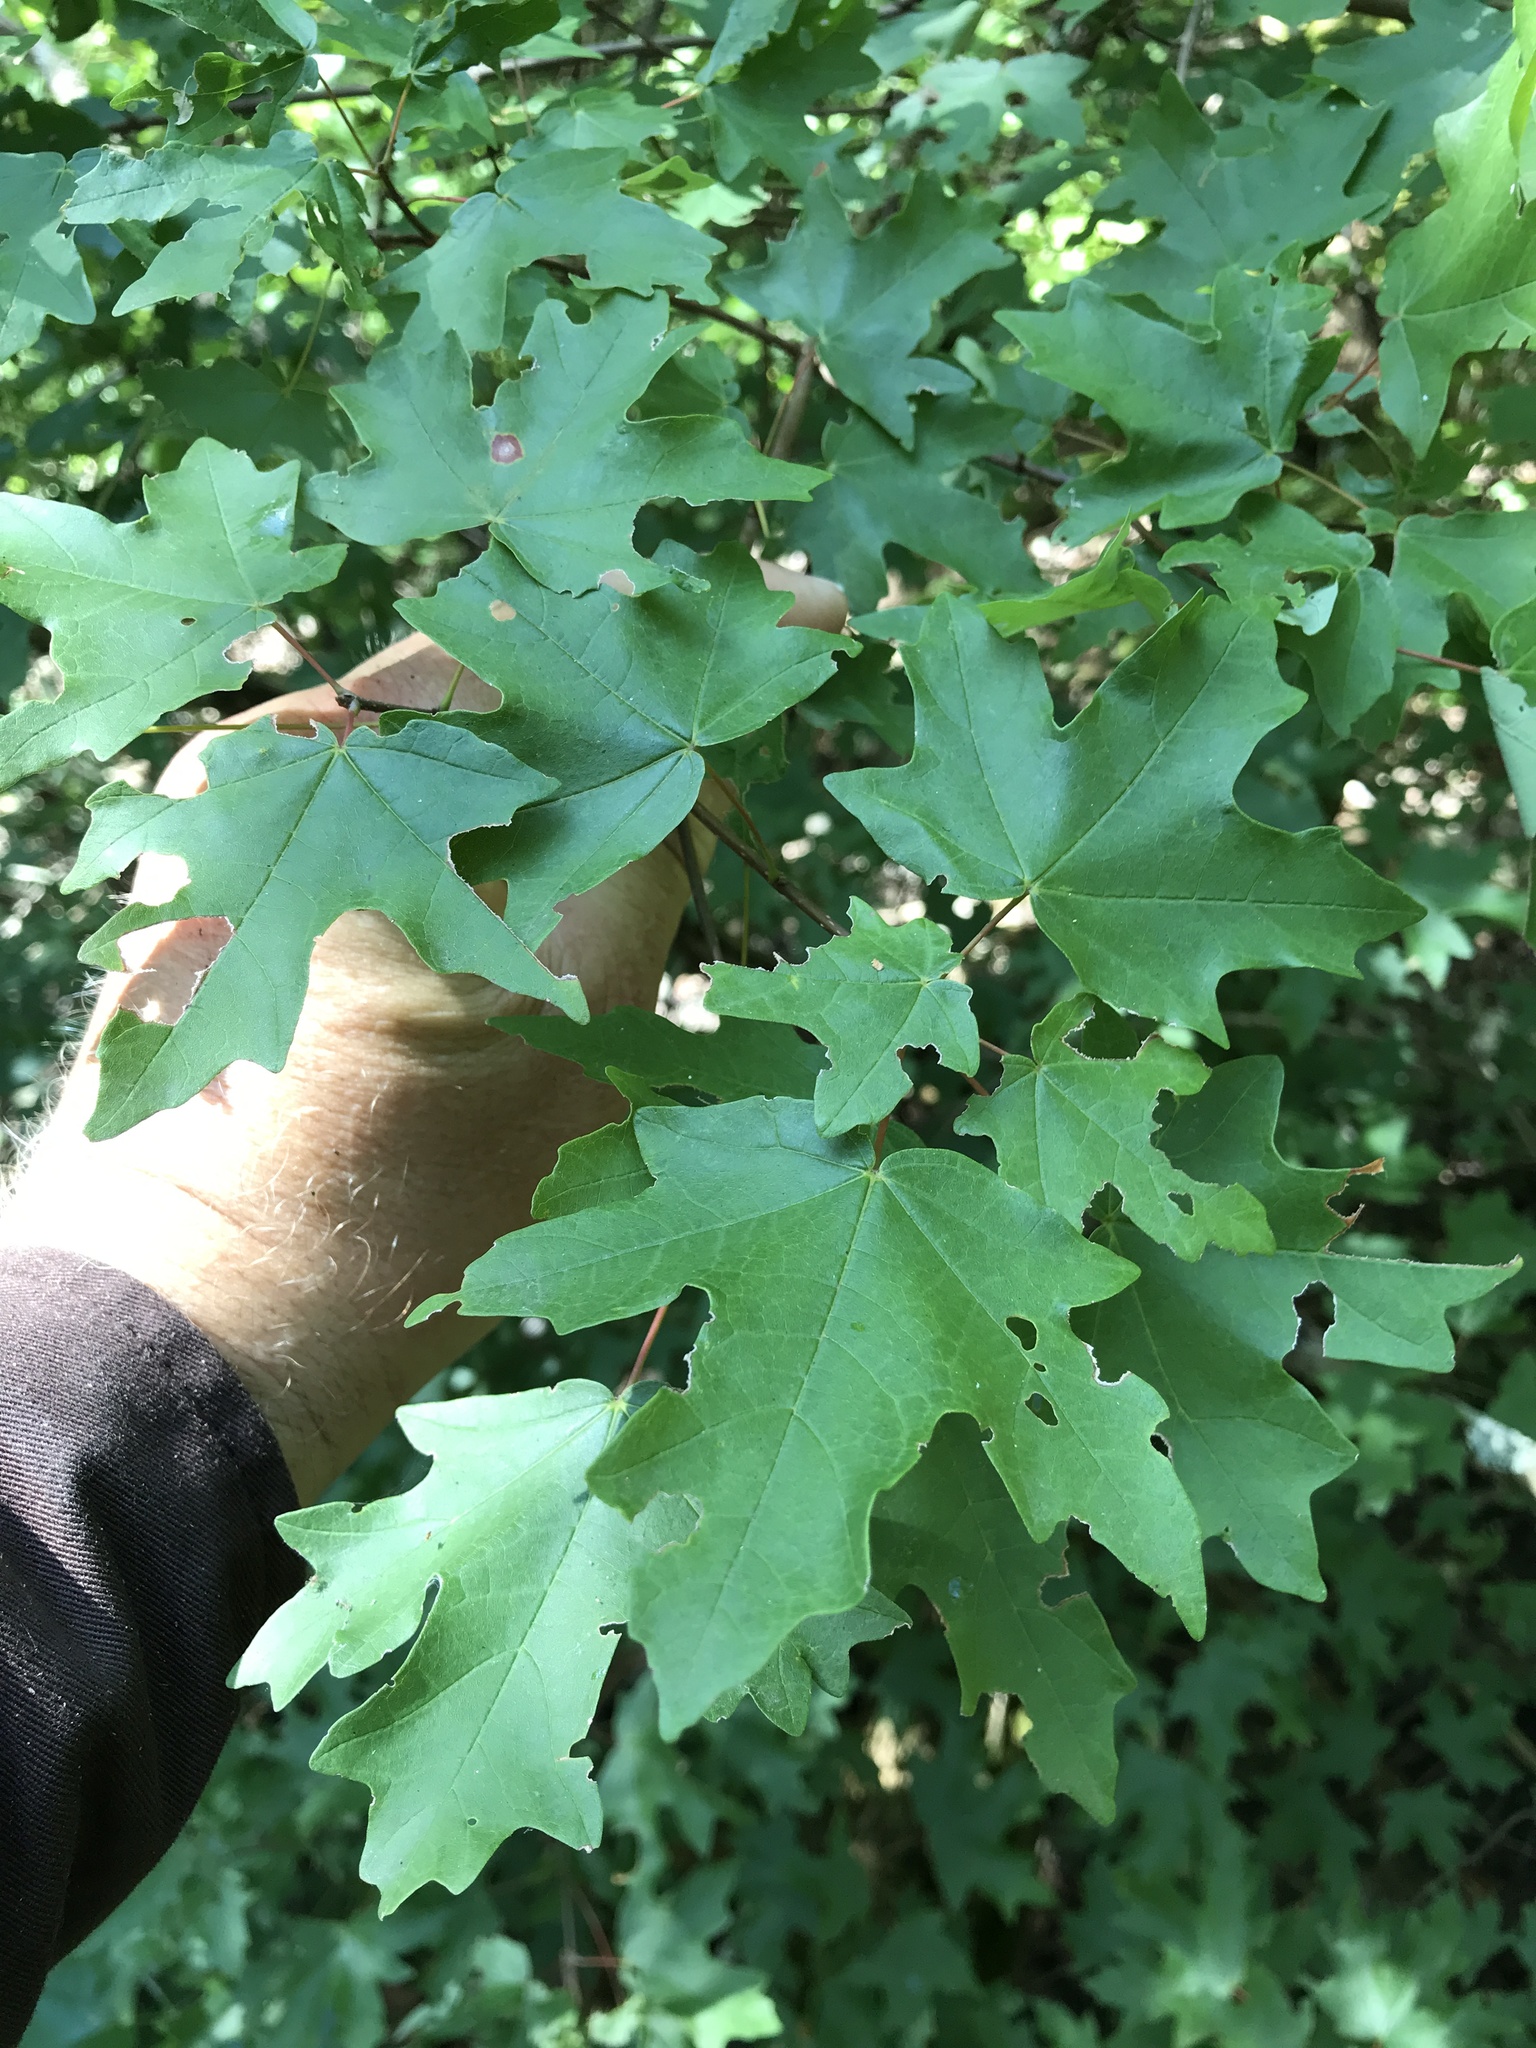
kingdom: Plantae
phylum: Tracheophyta
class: Magnoliopsida
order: Sapindales
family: Sapindaceae
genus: Acer
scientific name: Acer grandidentatum
